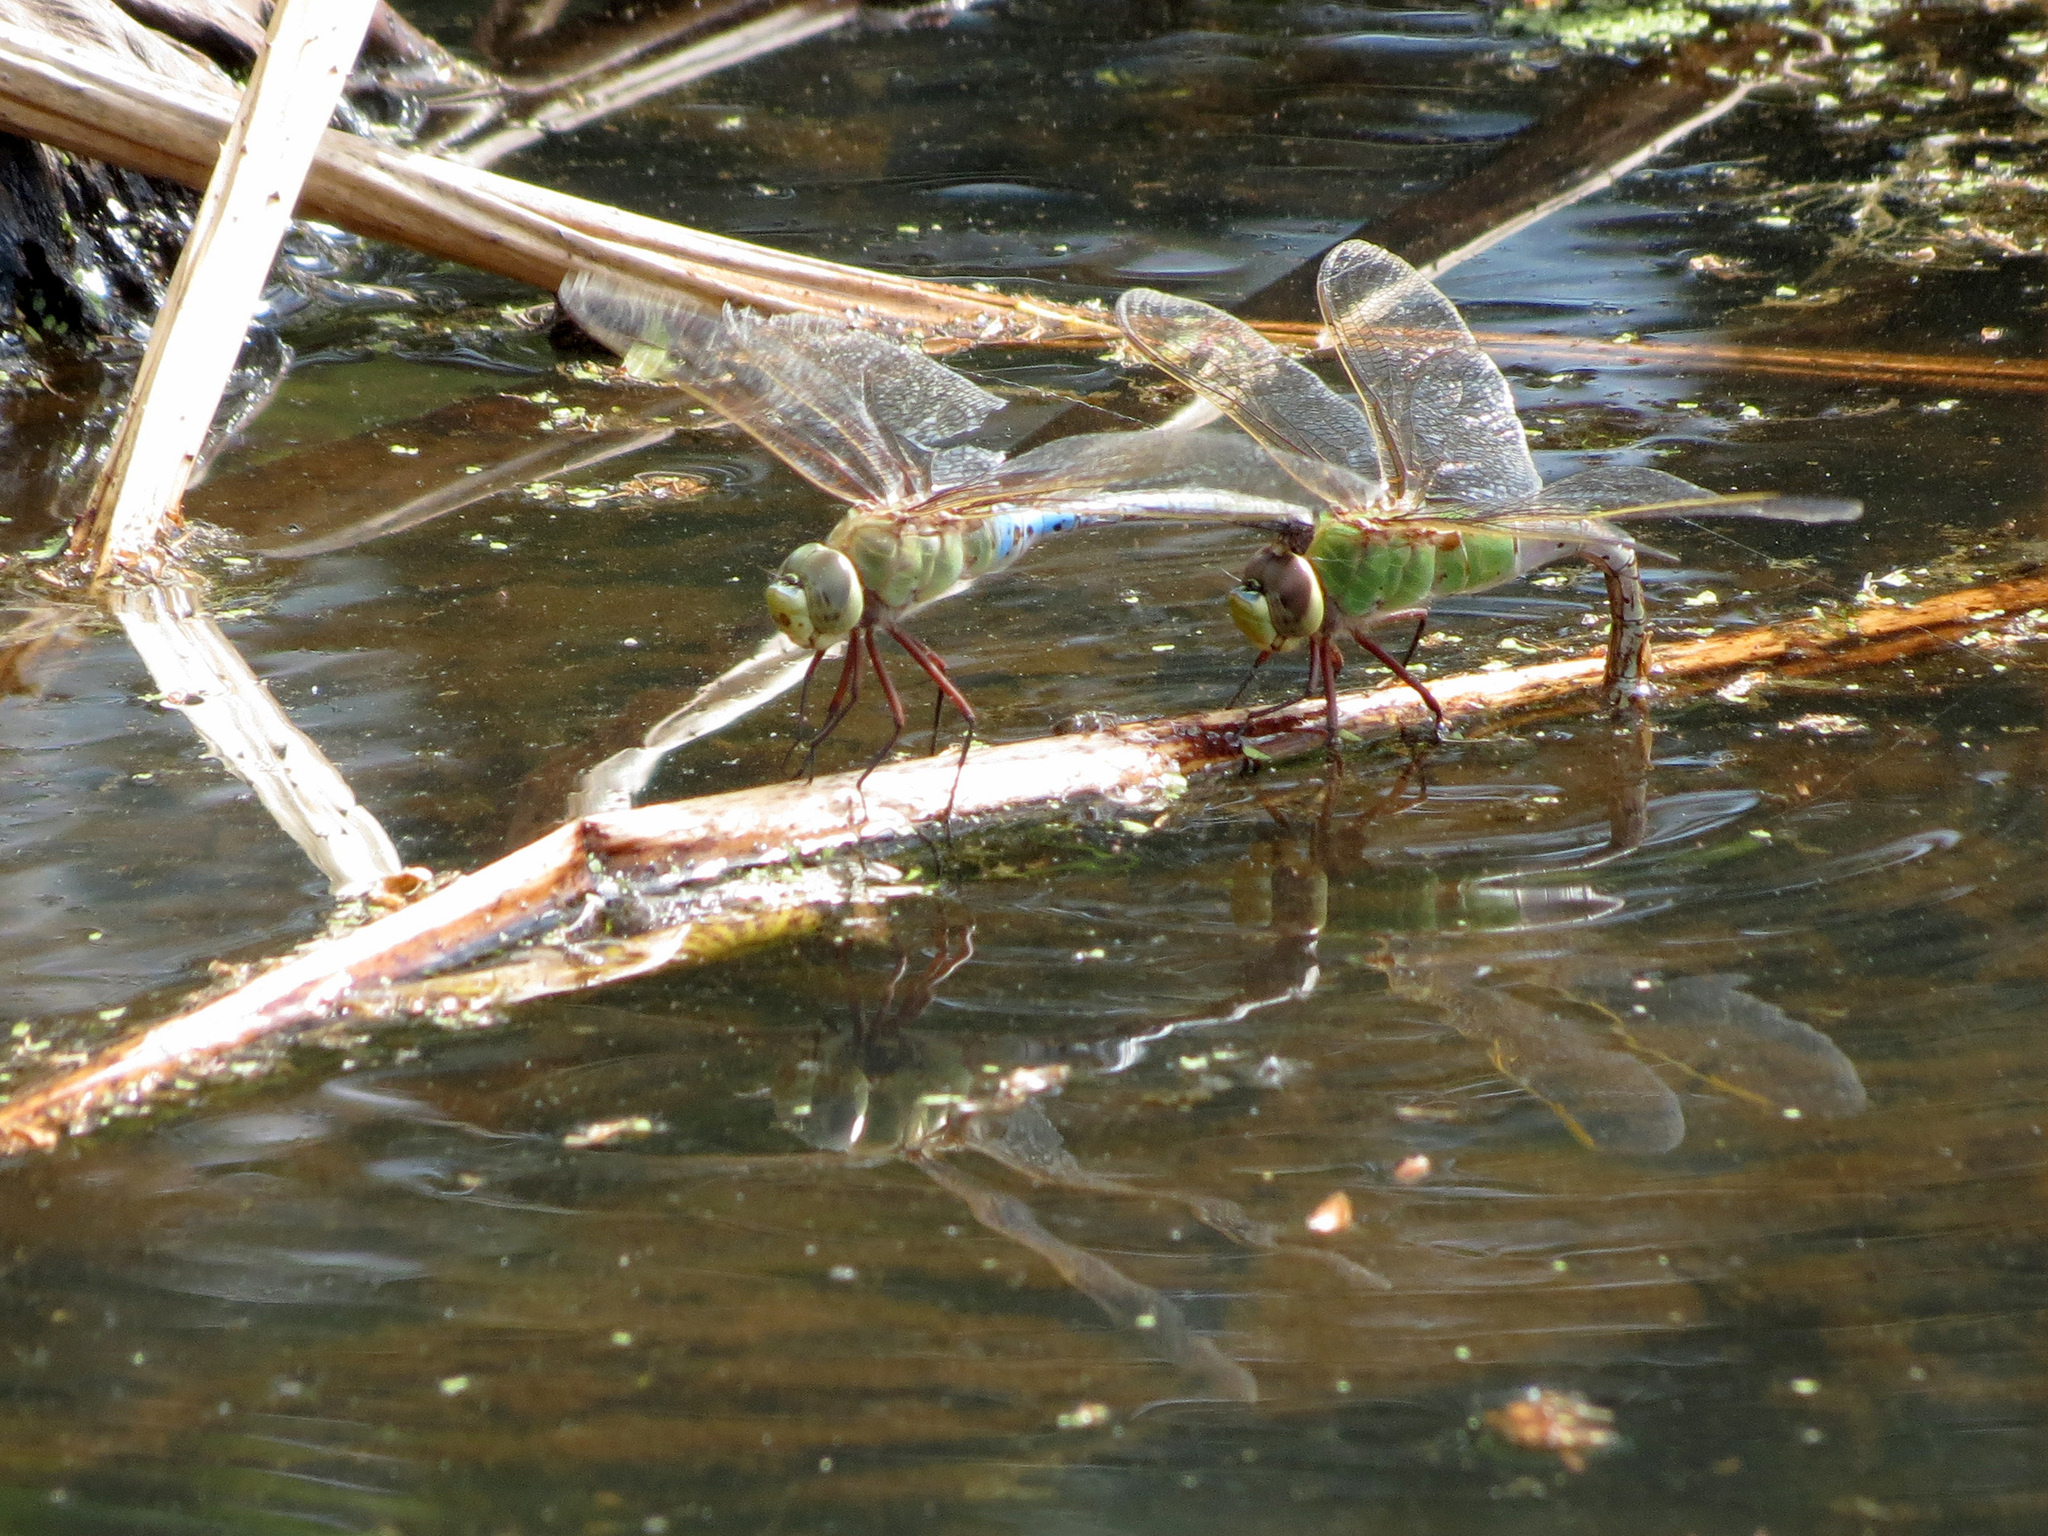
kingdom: Animalia
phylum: Arthropoda
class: Insecta
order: Odonata
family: Aeshnidae
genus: Anax
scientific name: Anax junius
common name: Common green darner
